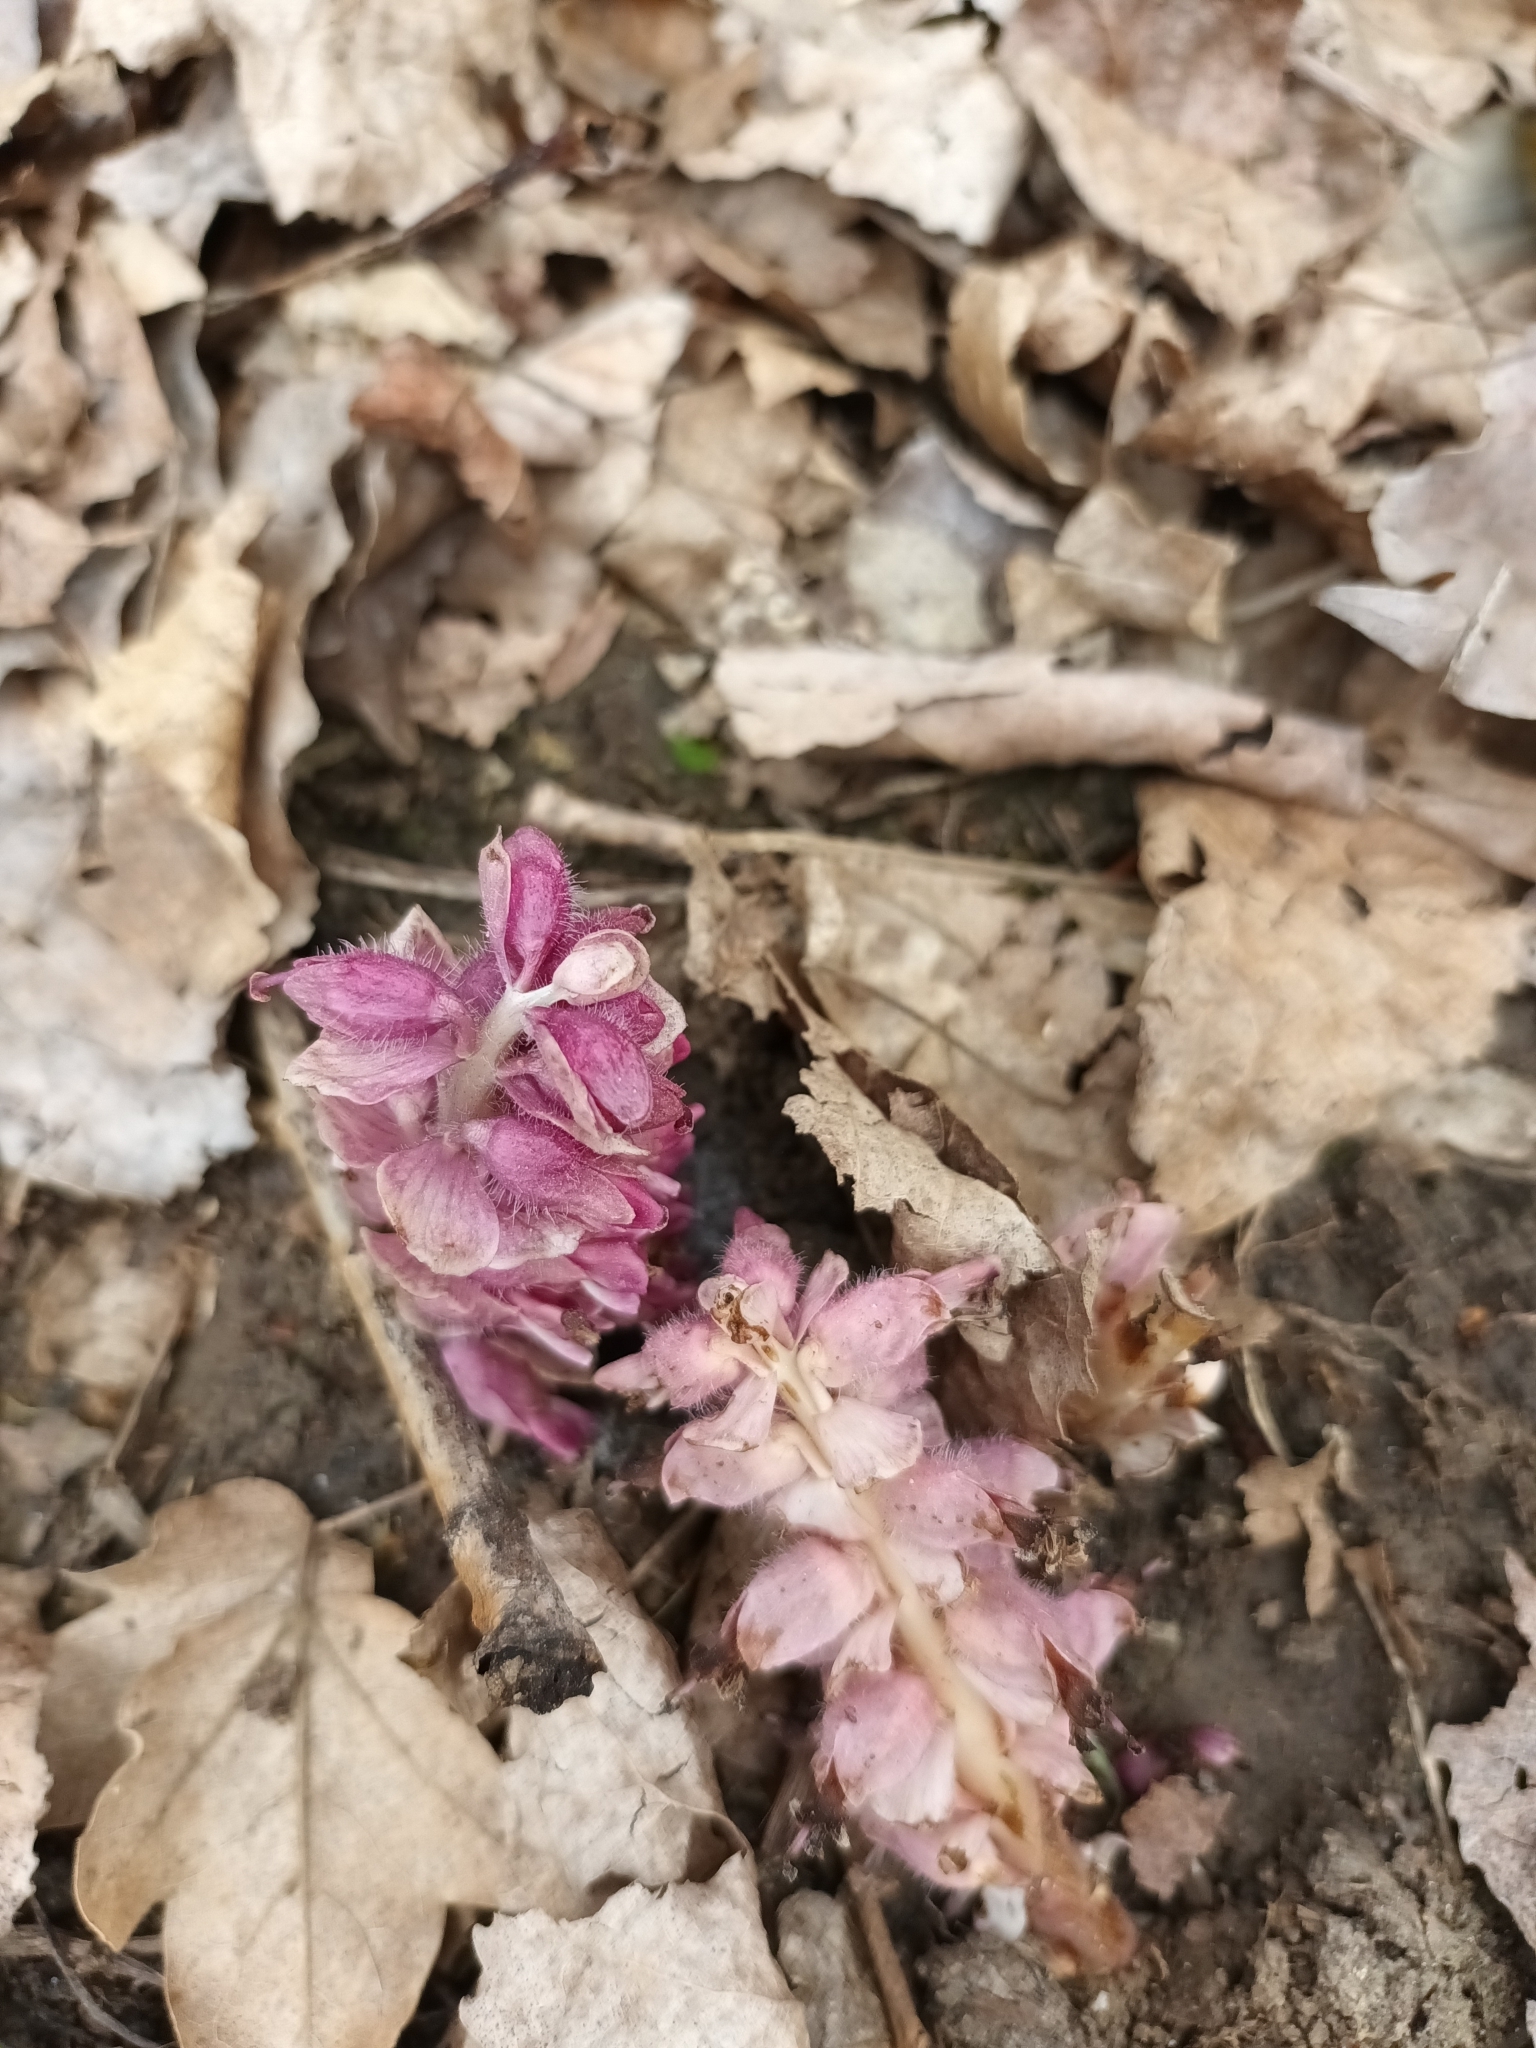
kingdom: Plantae
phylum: Tracheophyta
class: Magnoliopsida
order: Lamiales
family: Orobanchaceae
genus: Lathraea
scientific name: Lathraea squamaria
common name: Toothwort
